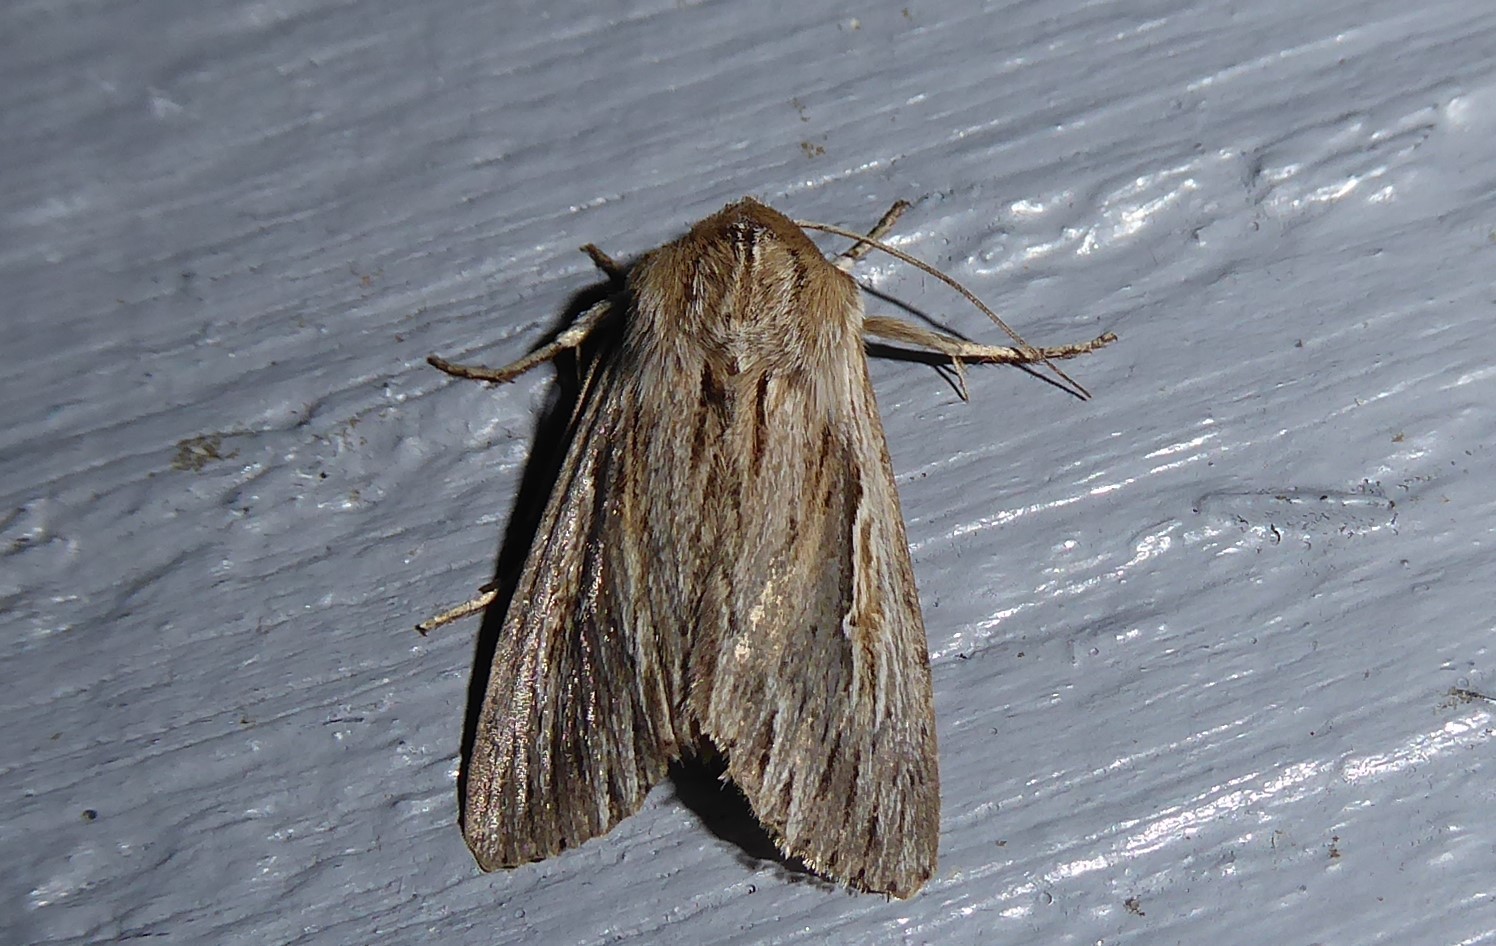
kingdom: Animalia
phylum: Arthropoda
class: Insecta
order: Lepidoptera
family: Noctuidae
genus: Persectania
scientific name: Persectania aversa
